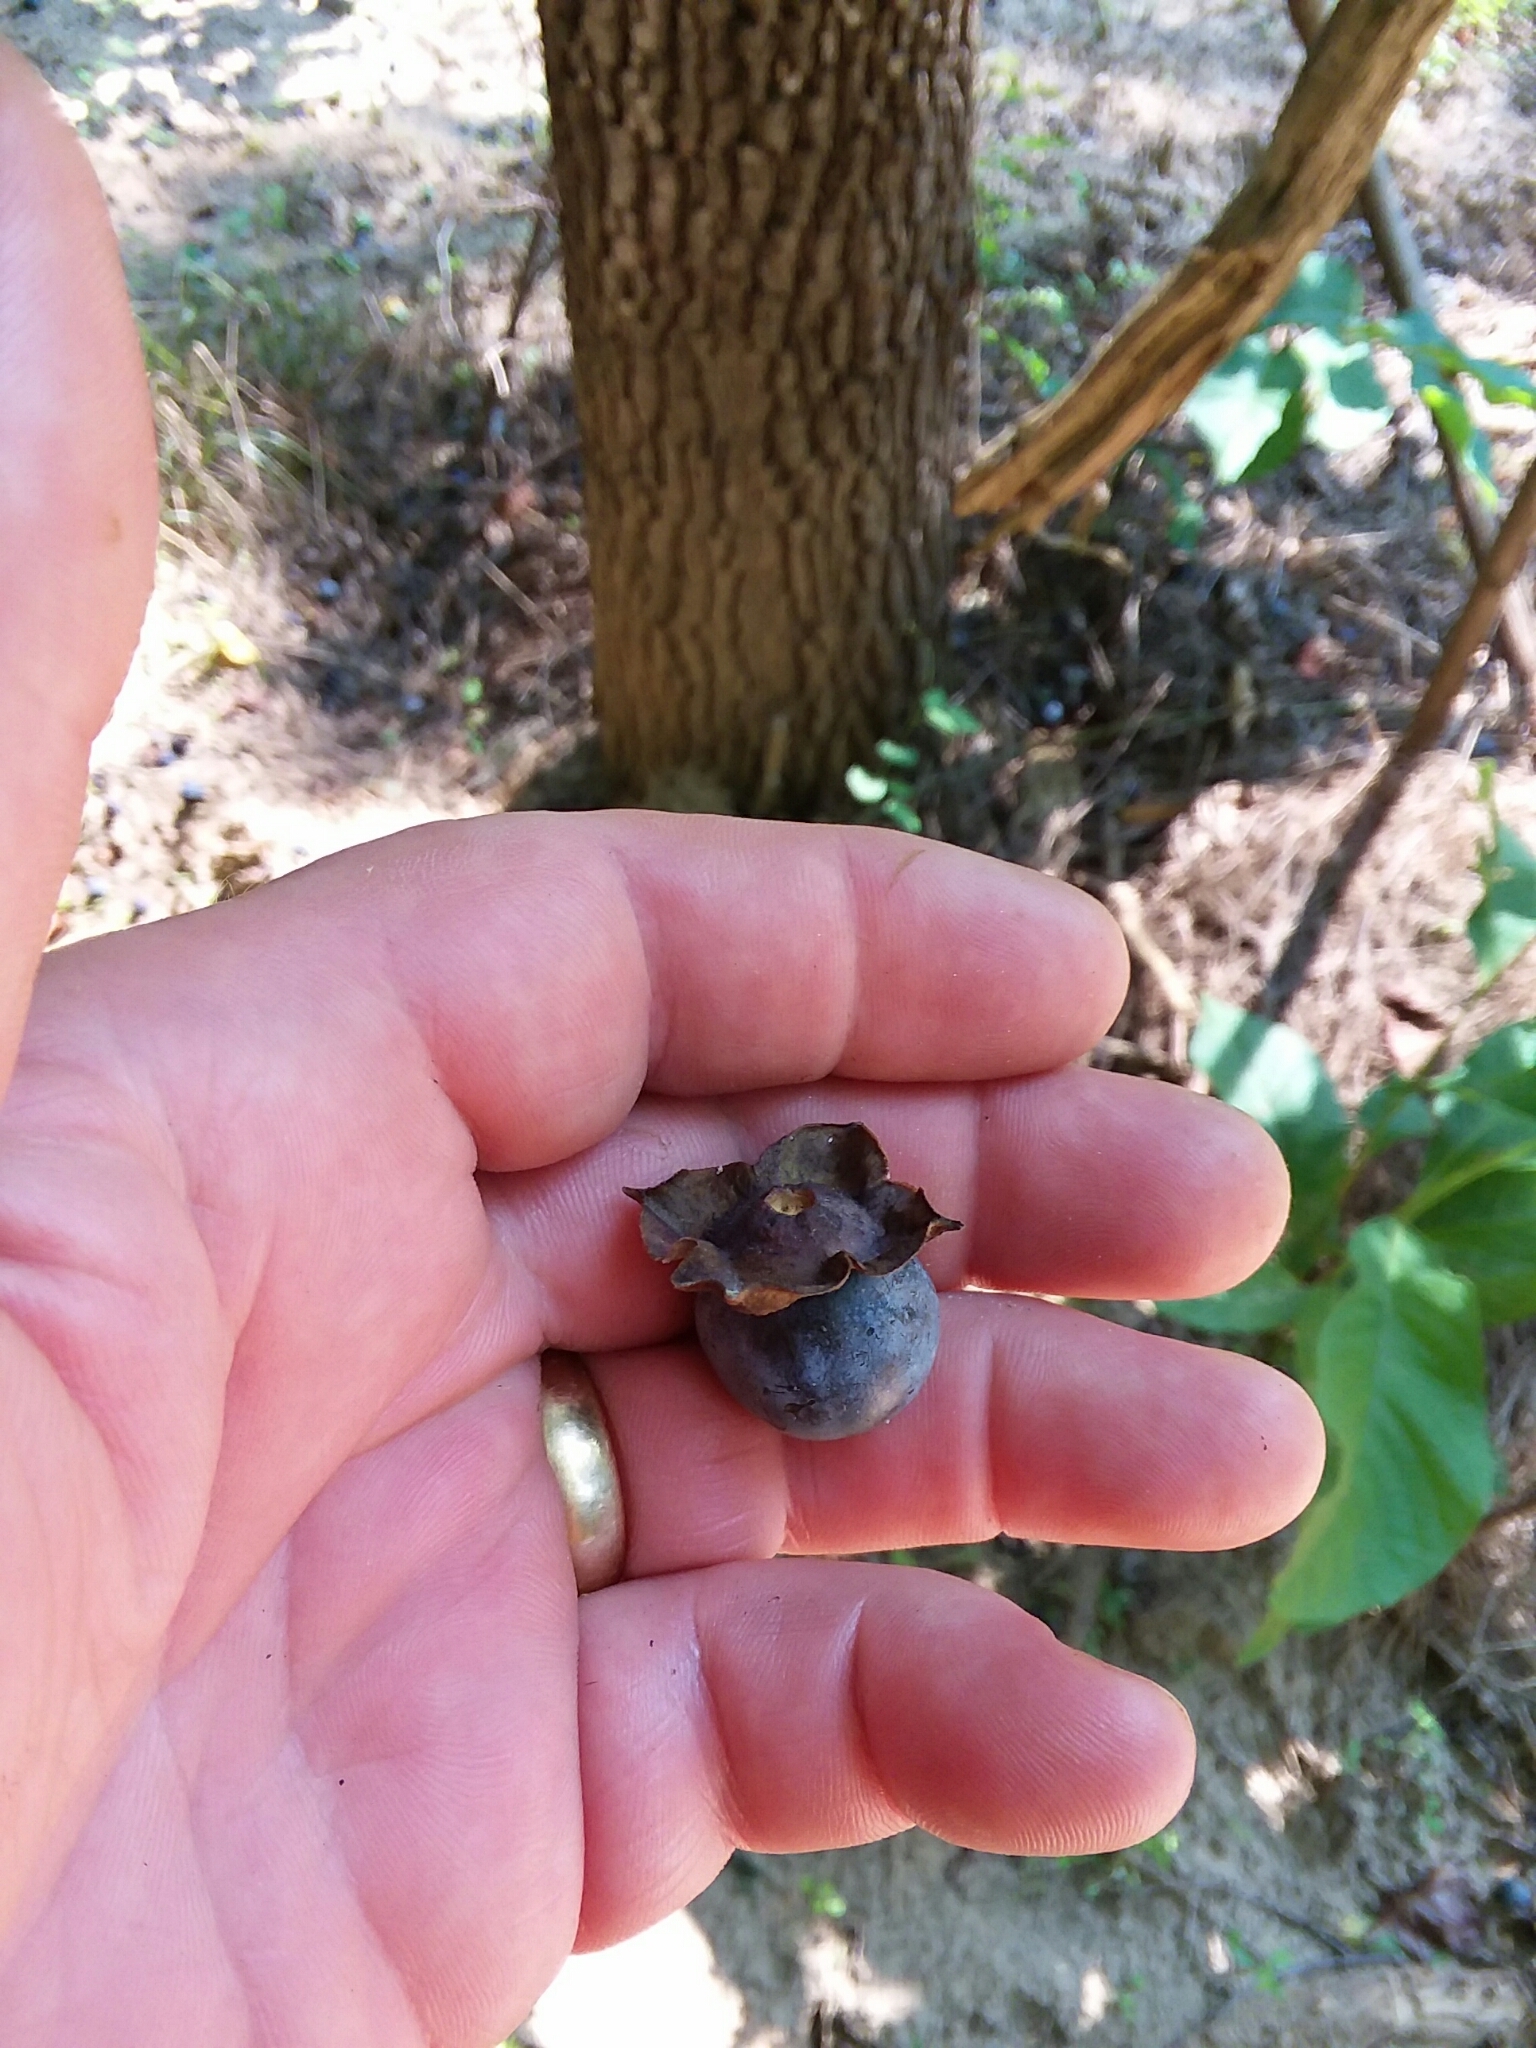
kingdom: Plantae
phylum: Tracheophyta
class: Magnoliopsida
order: Ericales
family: Ebenaceae
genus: Diospyros
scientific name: Diospyros virginiana
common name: Persimmon
